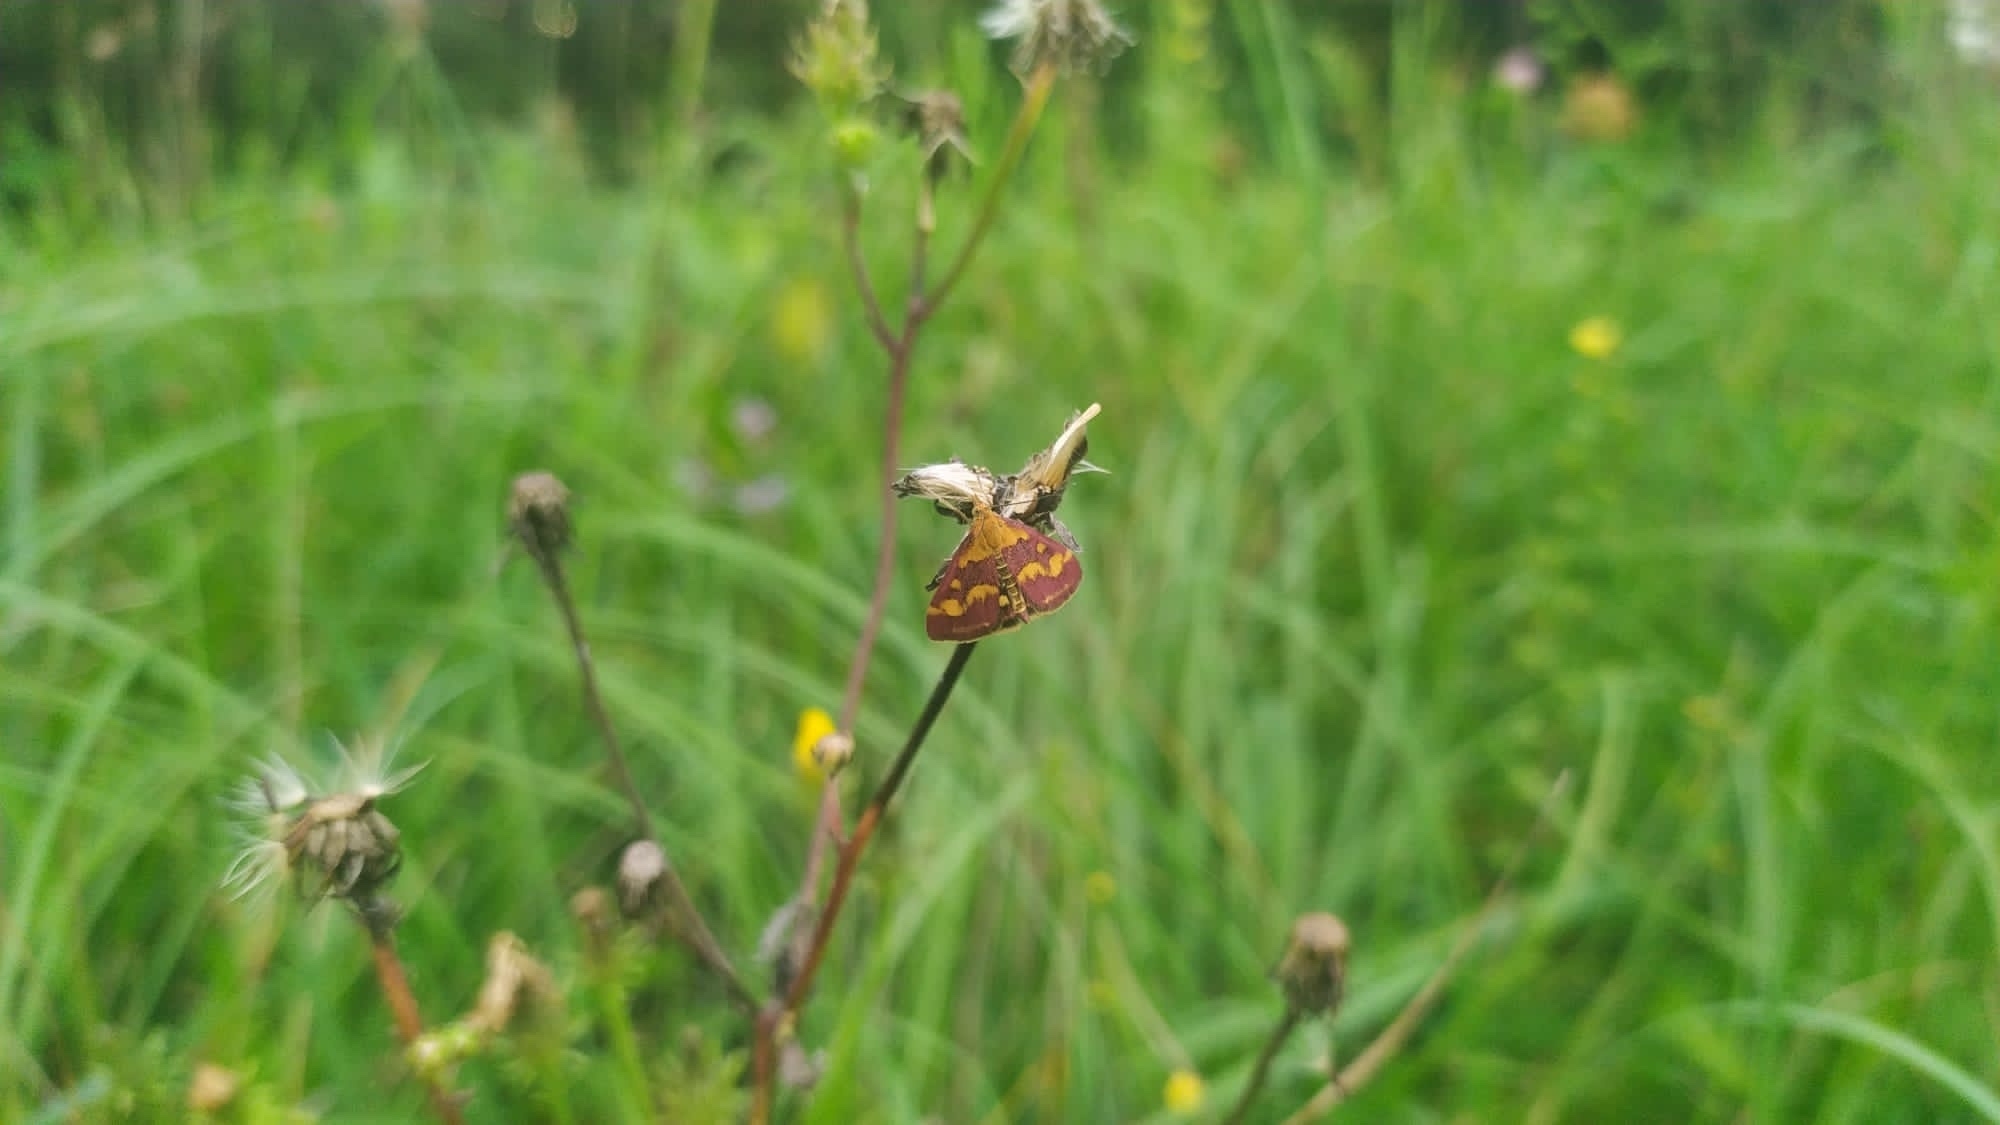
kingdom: Animalia
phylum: Arthropoda
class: Insecta
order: Lepidoptera
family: Crambidae
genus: Pyrausta
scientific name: Pyrausta purpuralis
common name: Common purple & gold
